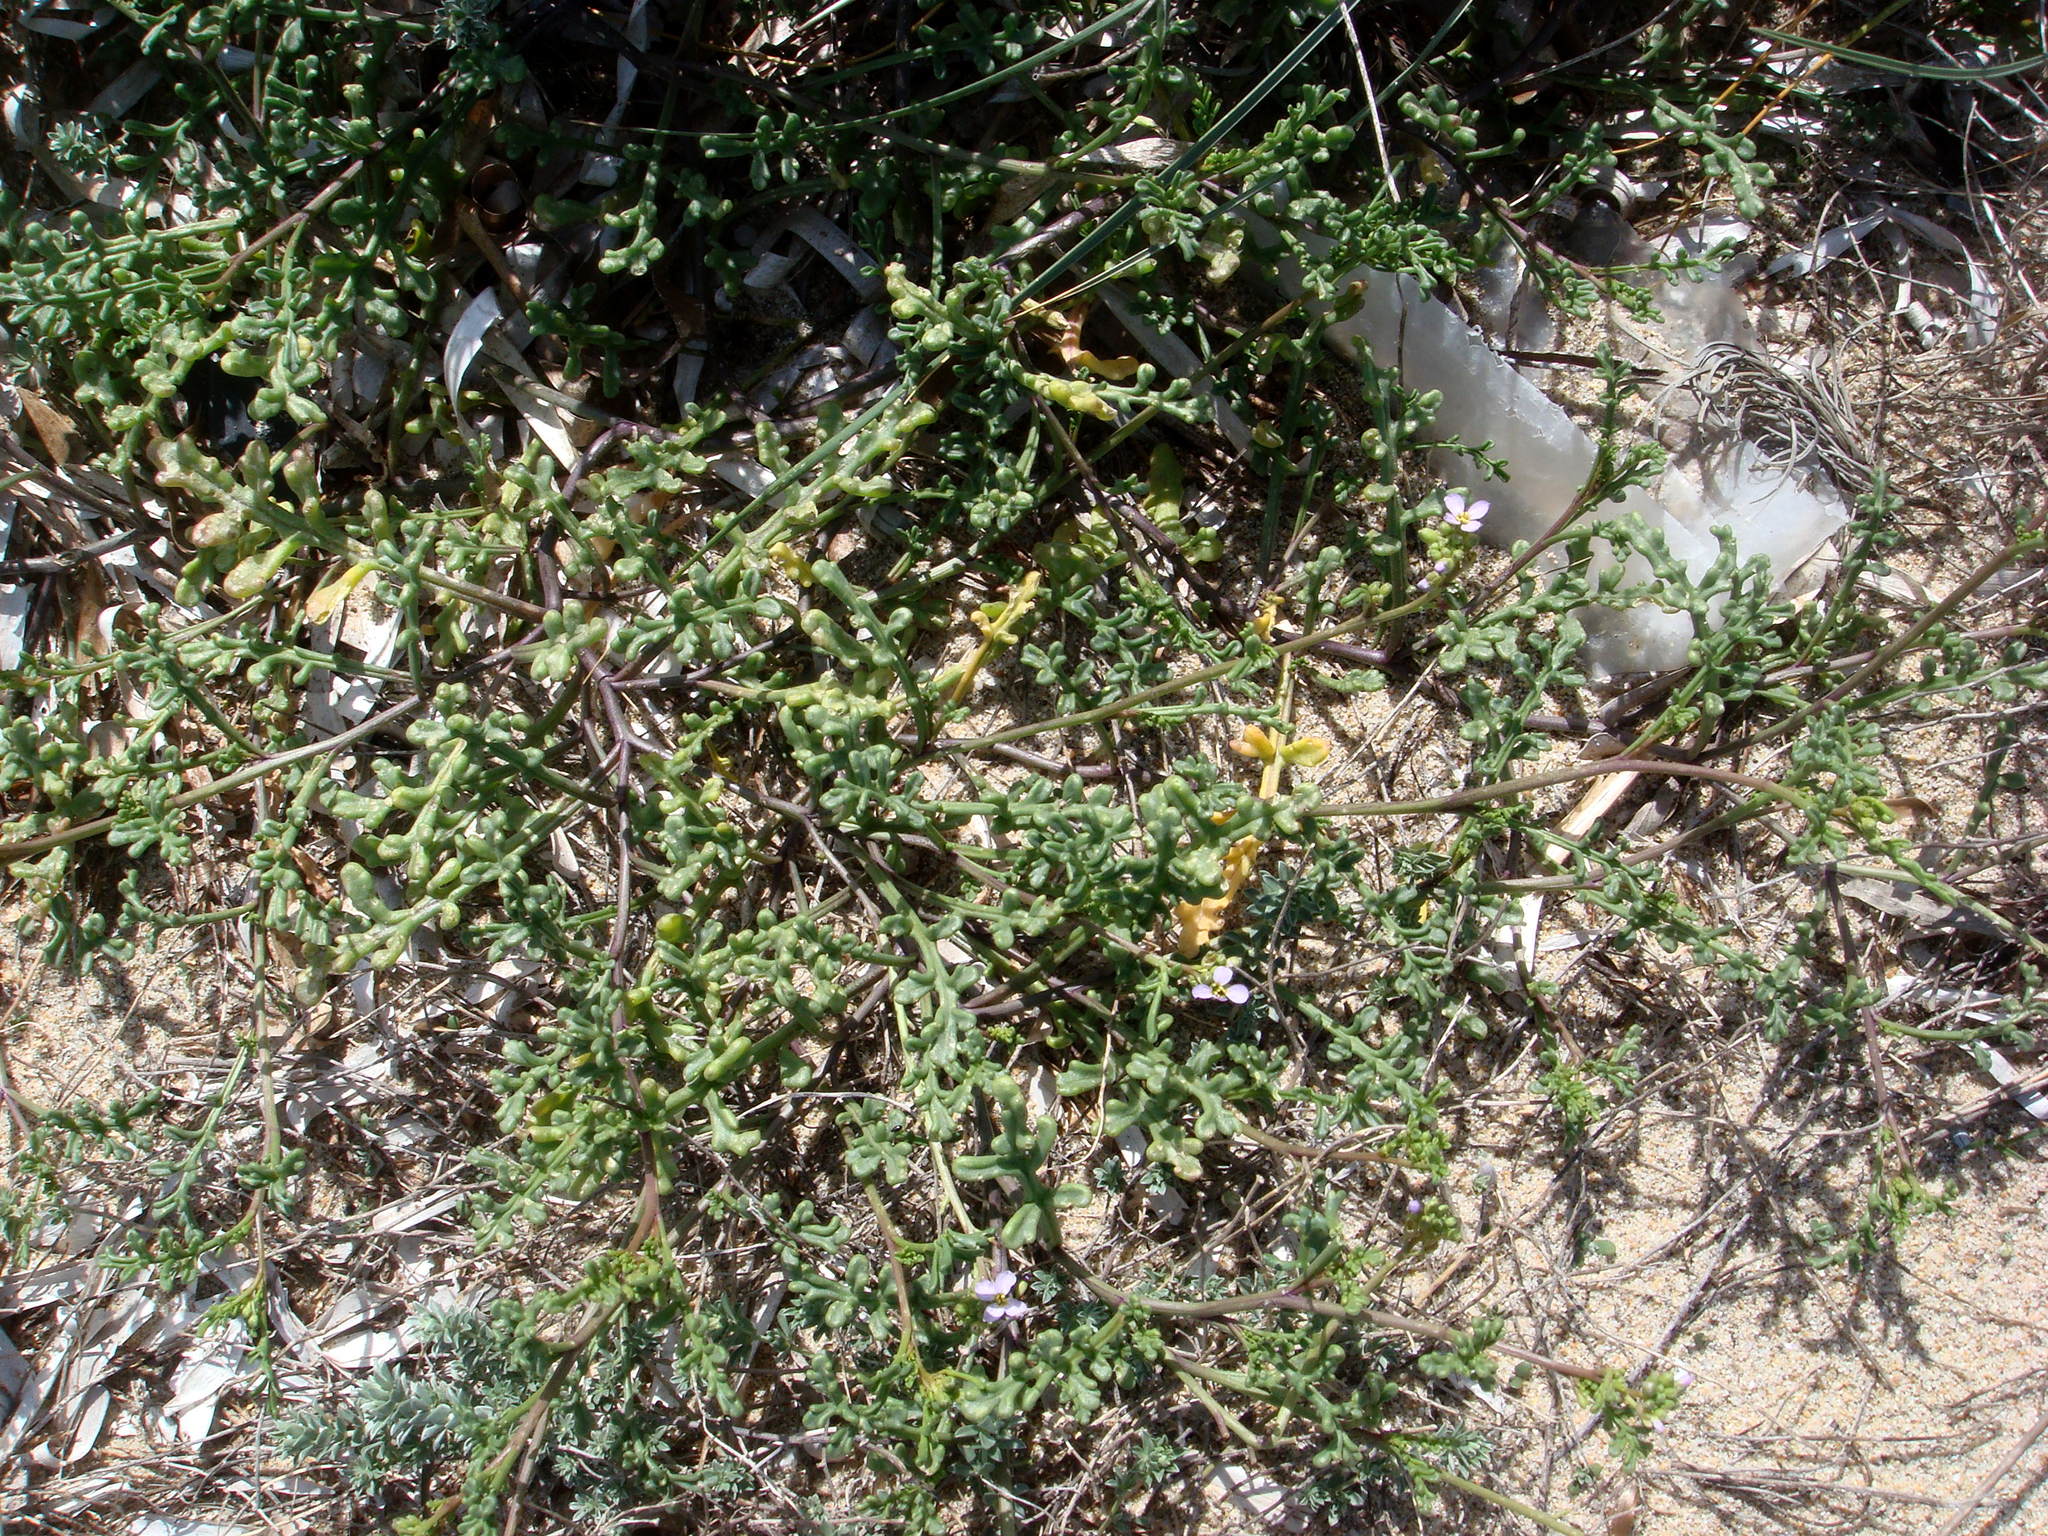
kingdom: Plantae
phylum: Tracheophyta
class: Magnoliopsida
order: Brassicales
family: Brassicaceae
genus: Cakile
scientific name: Cakile maritima
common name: Sea rocket
